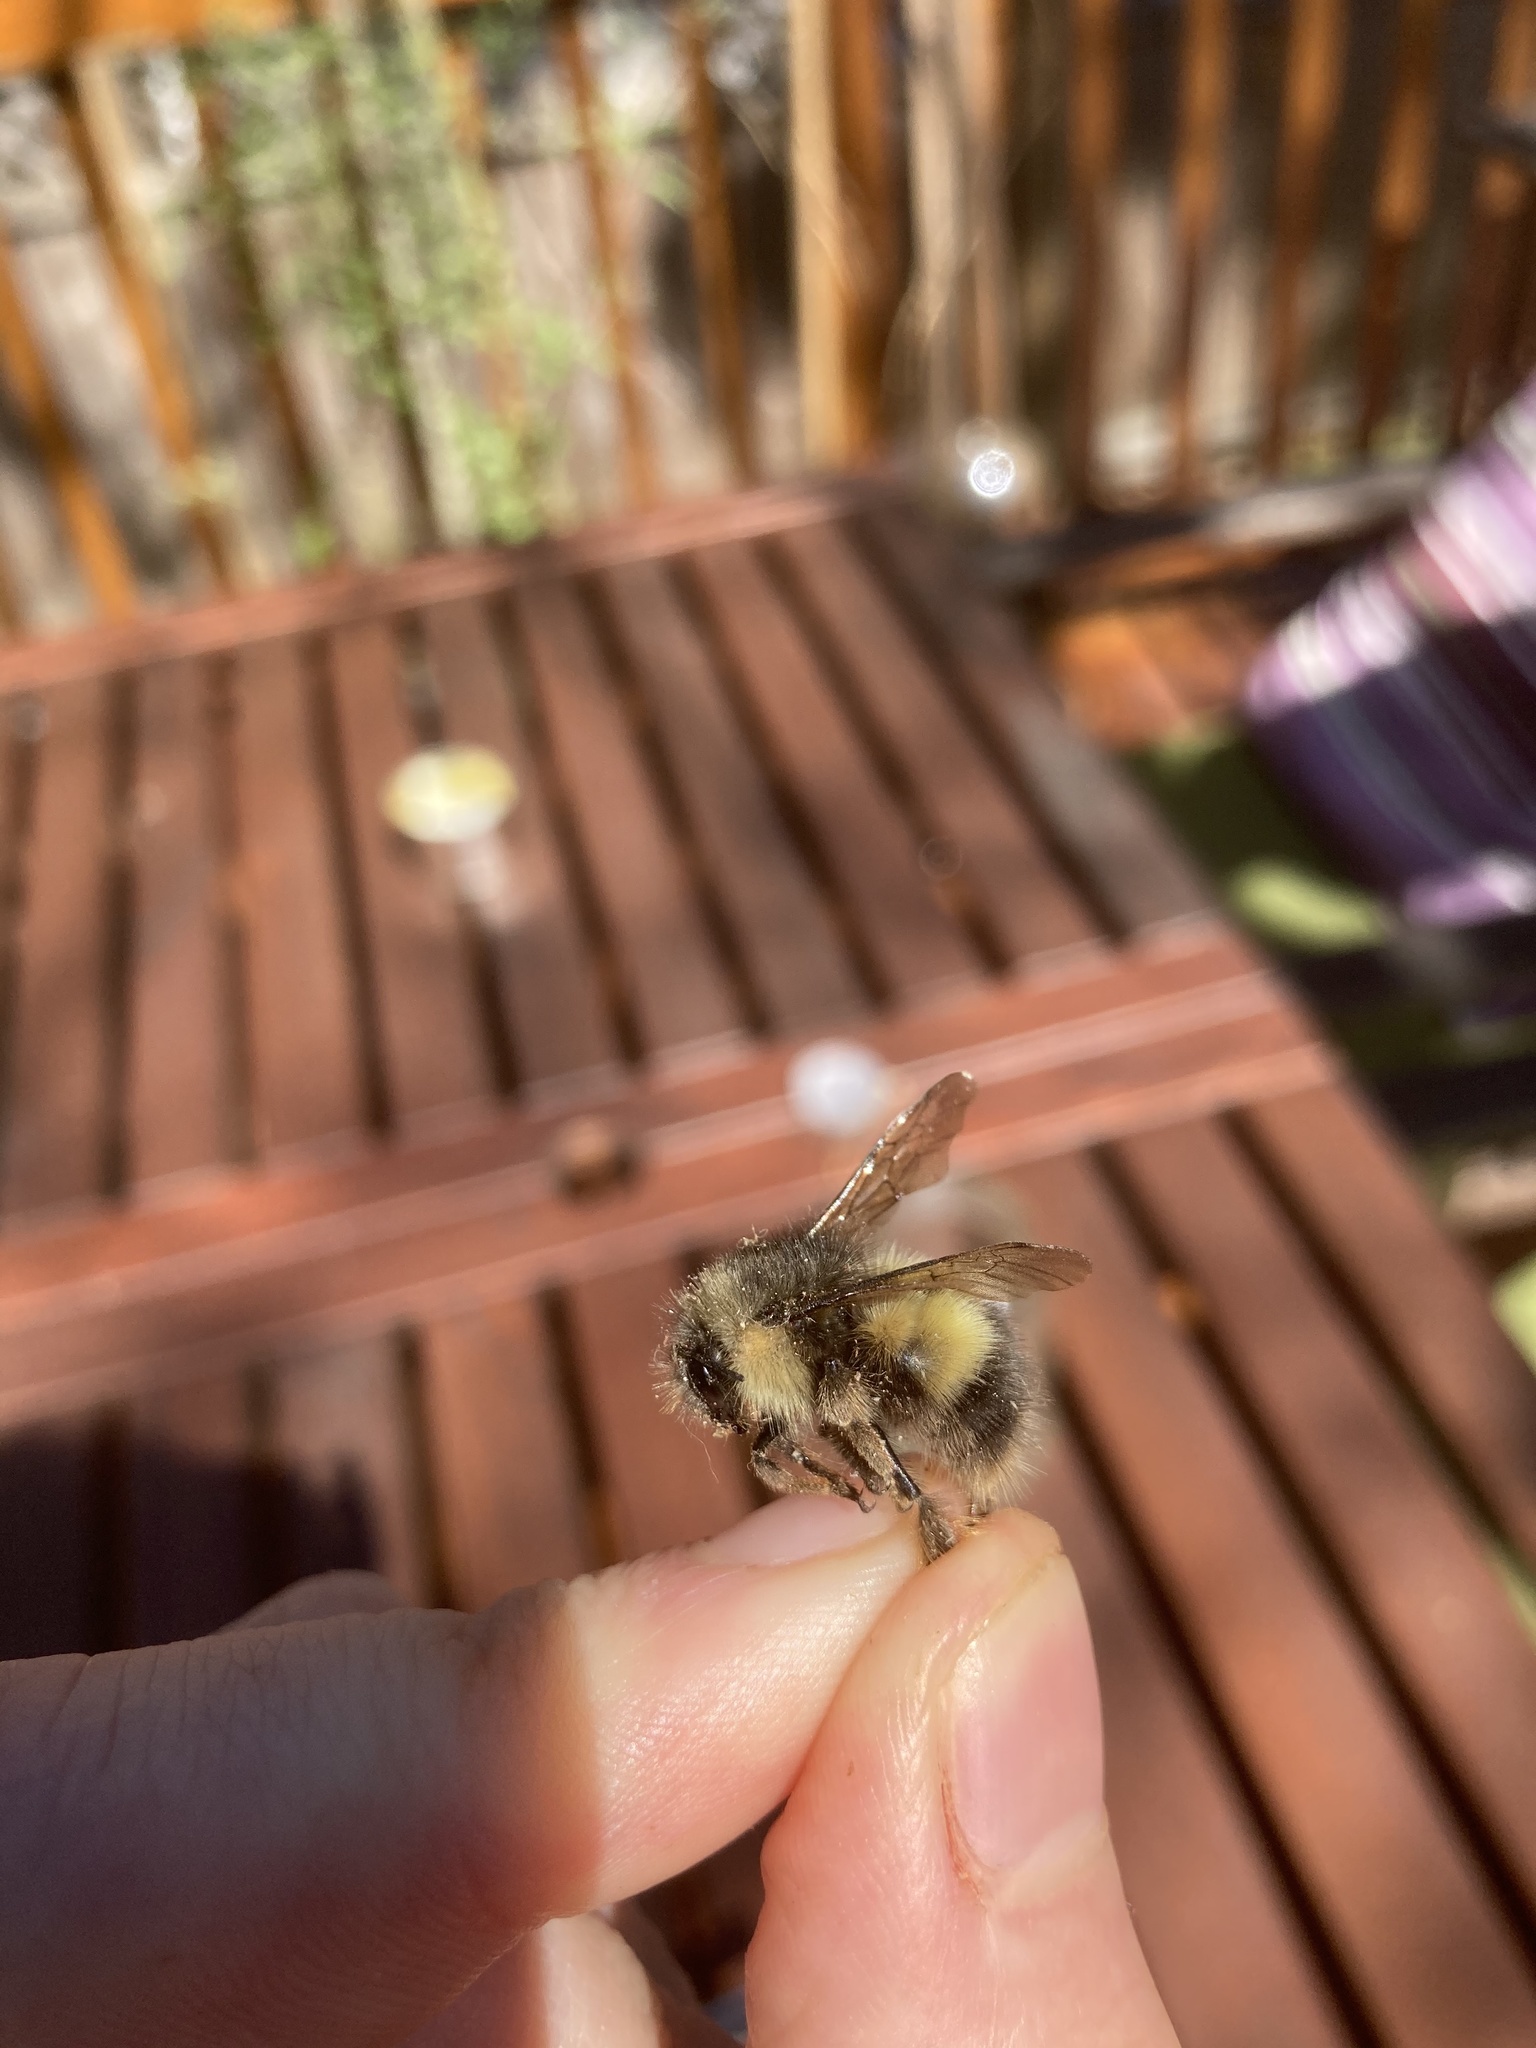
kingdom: Animalia
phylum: Arthropoda
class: Insecta
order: Hymenoptera
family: Apidae
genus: Bombus
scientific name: Bombus sitkensis
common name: Sitka bumble bee
